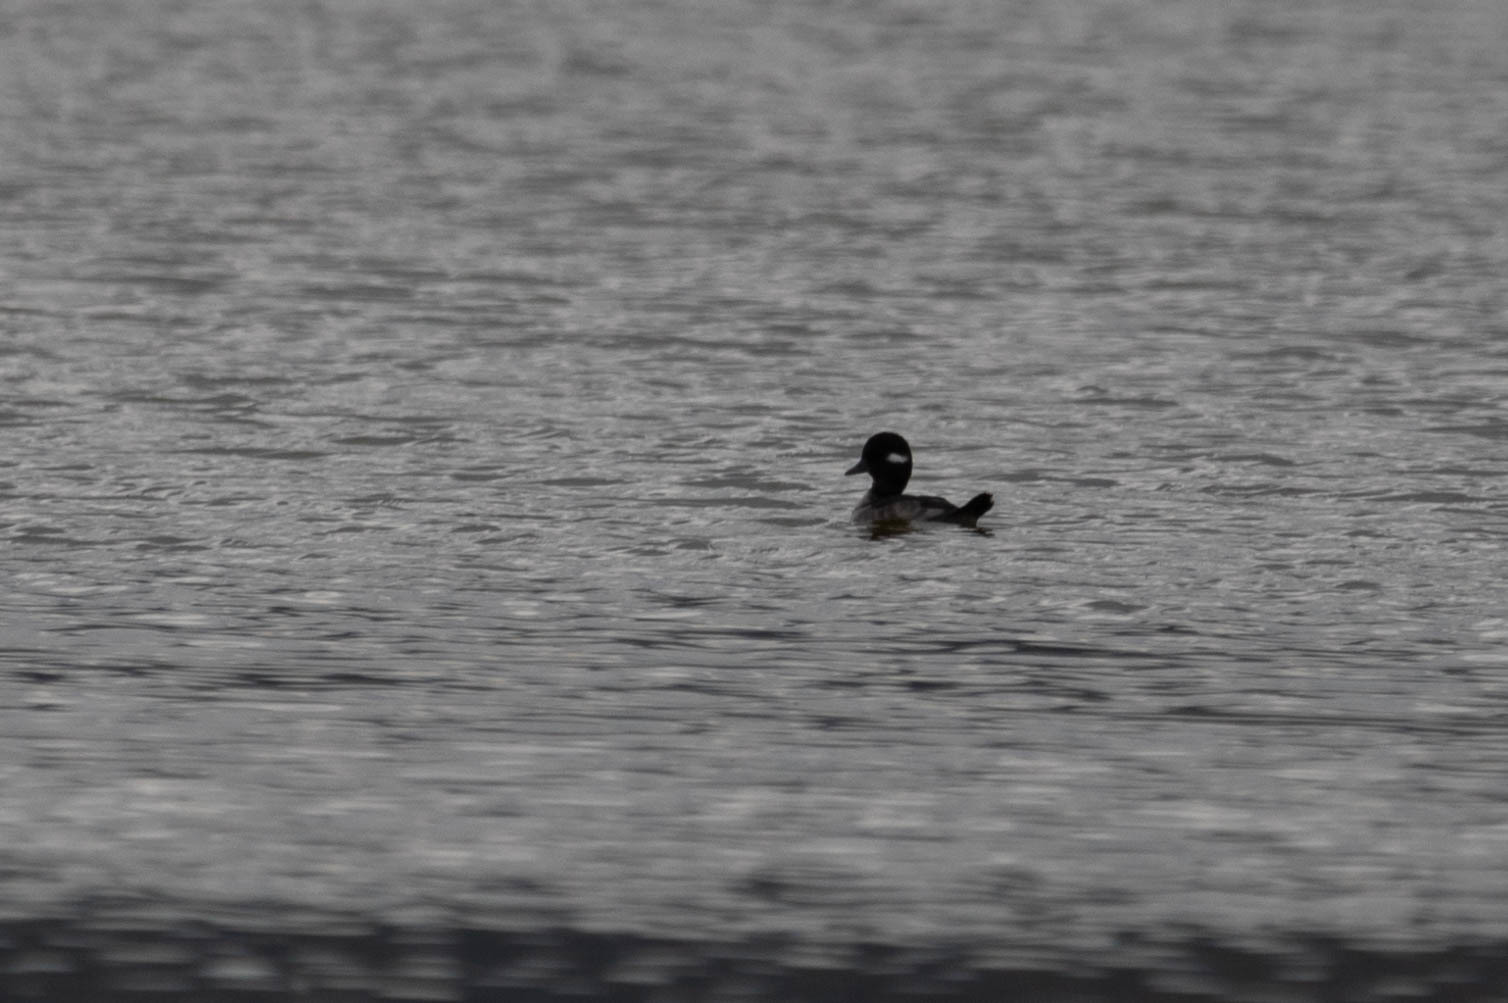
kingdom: Animalia
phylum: Chordata
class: Aves
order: Anseriformes
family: Anatidae
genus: Bucephala
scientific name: Bucephala albeola
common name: Bufflehead
